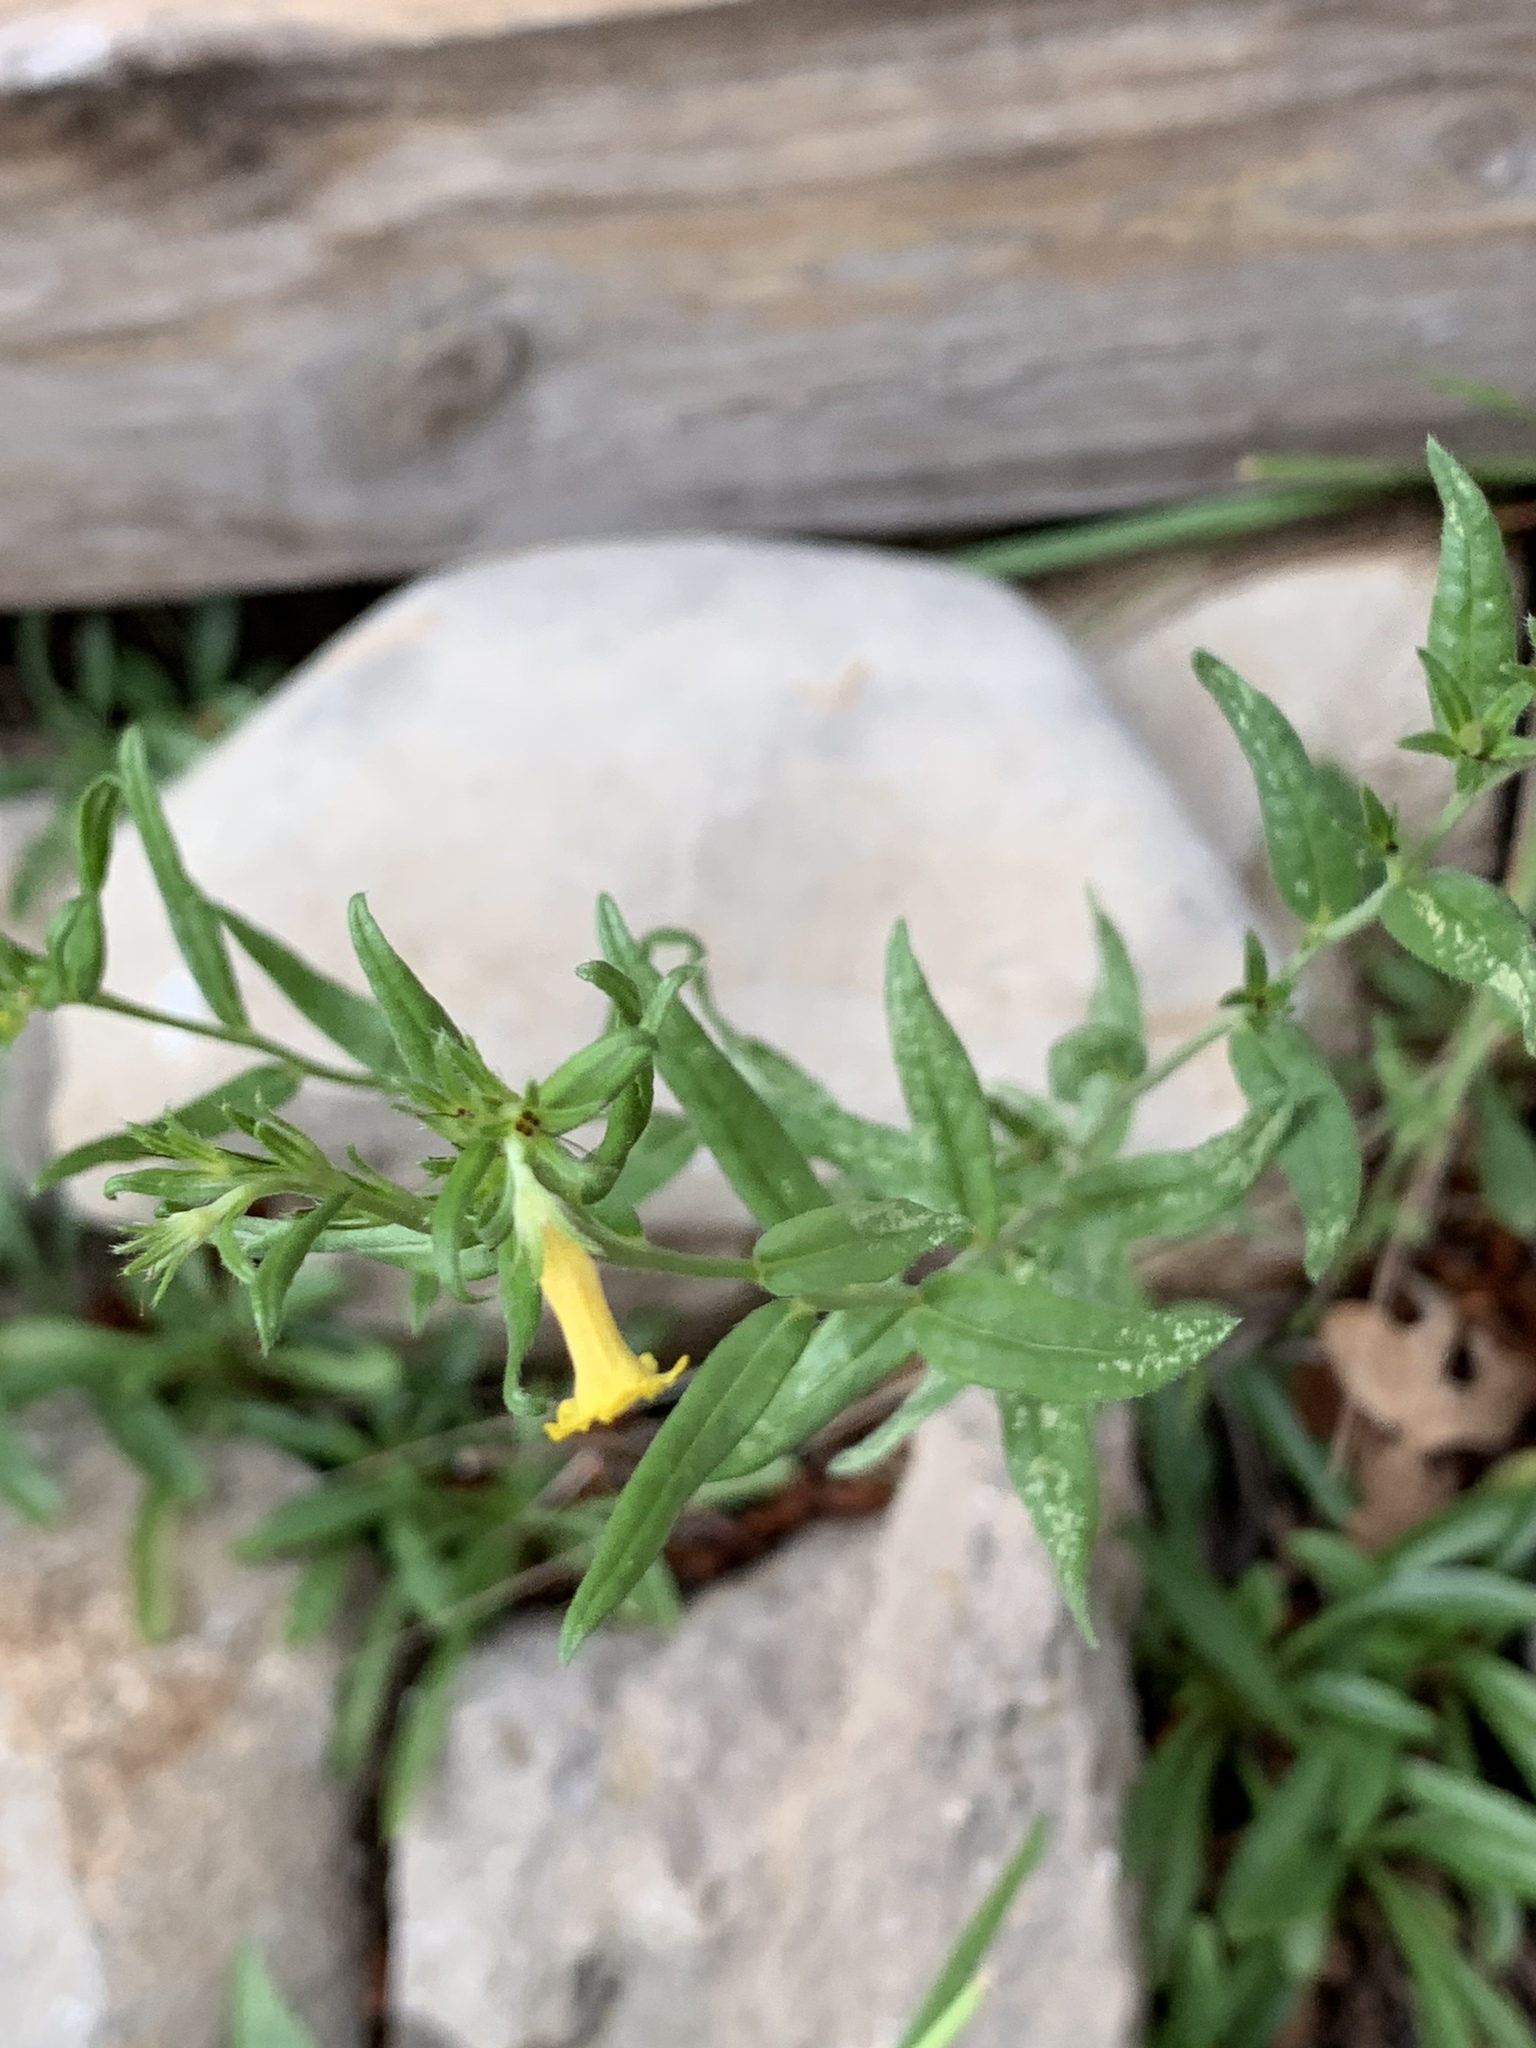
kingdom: Plantae
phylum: Tracheophyta
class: Magnoliopsida
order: Boraginales
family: Boraginaceae
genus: Lithospermum
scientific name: Lithospermum multiflorum
